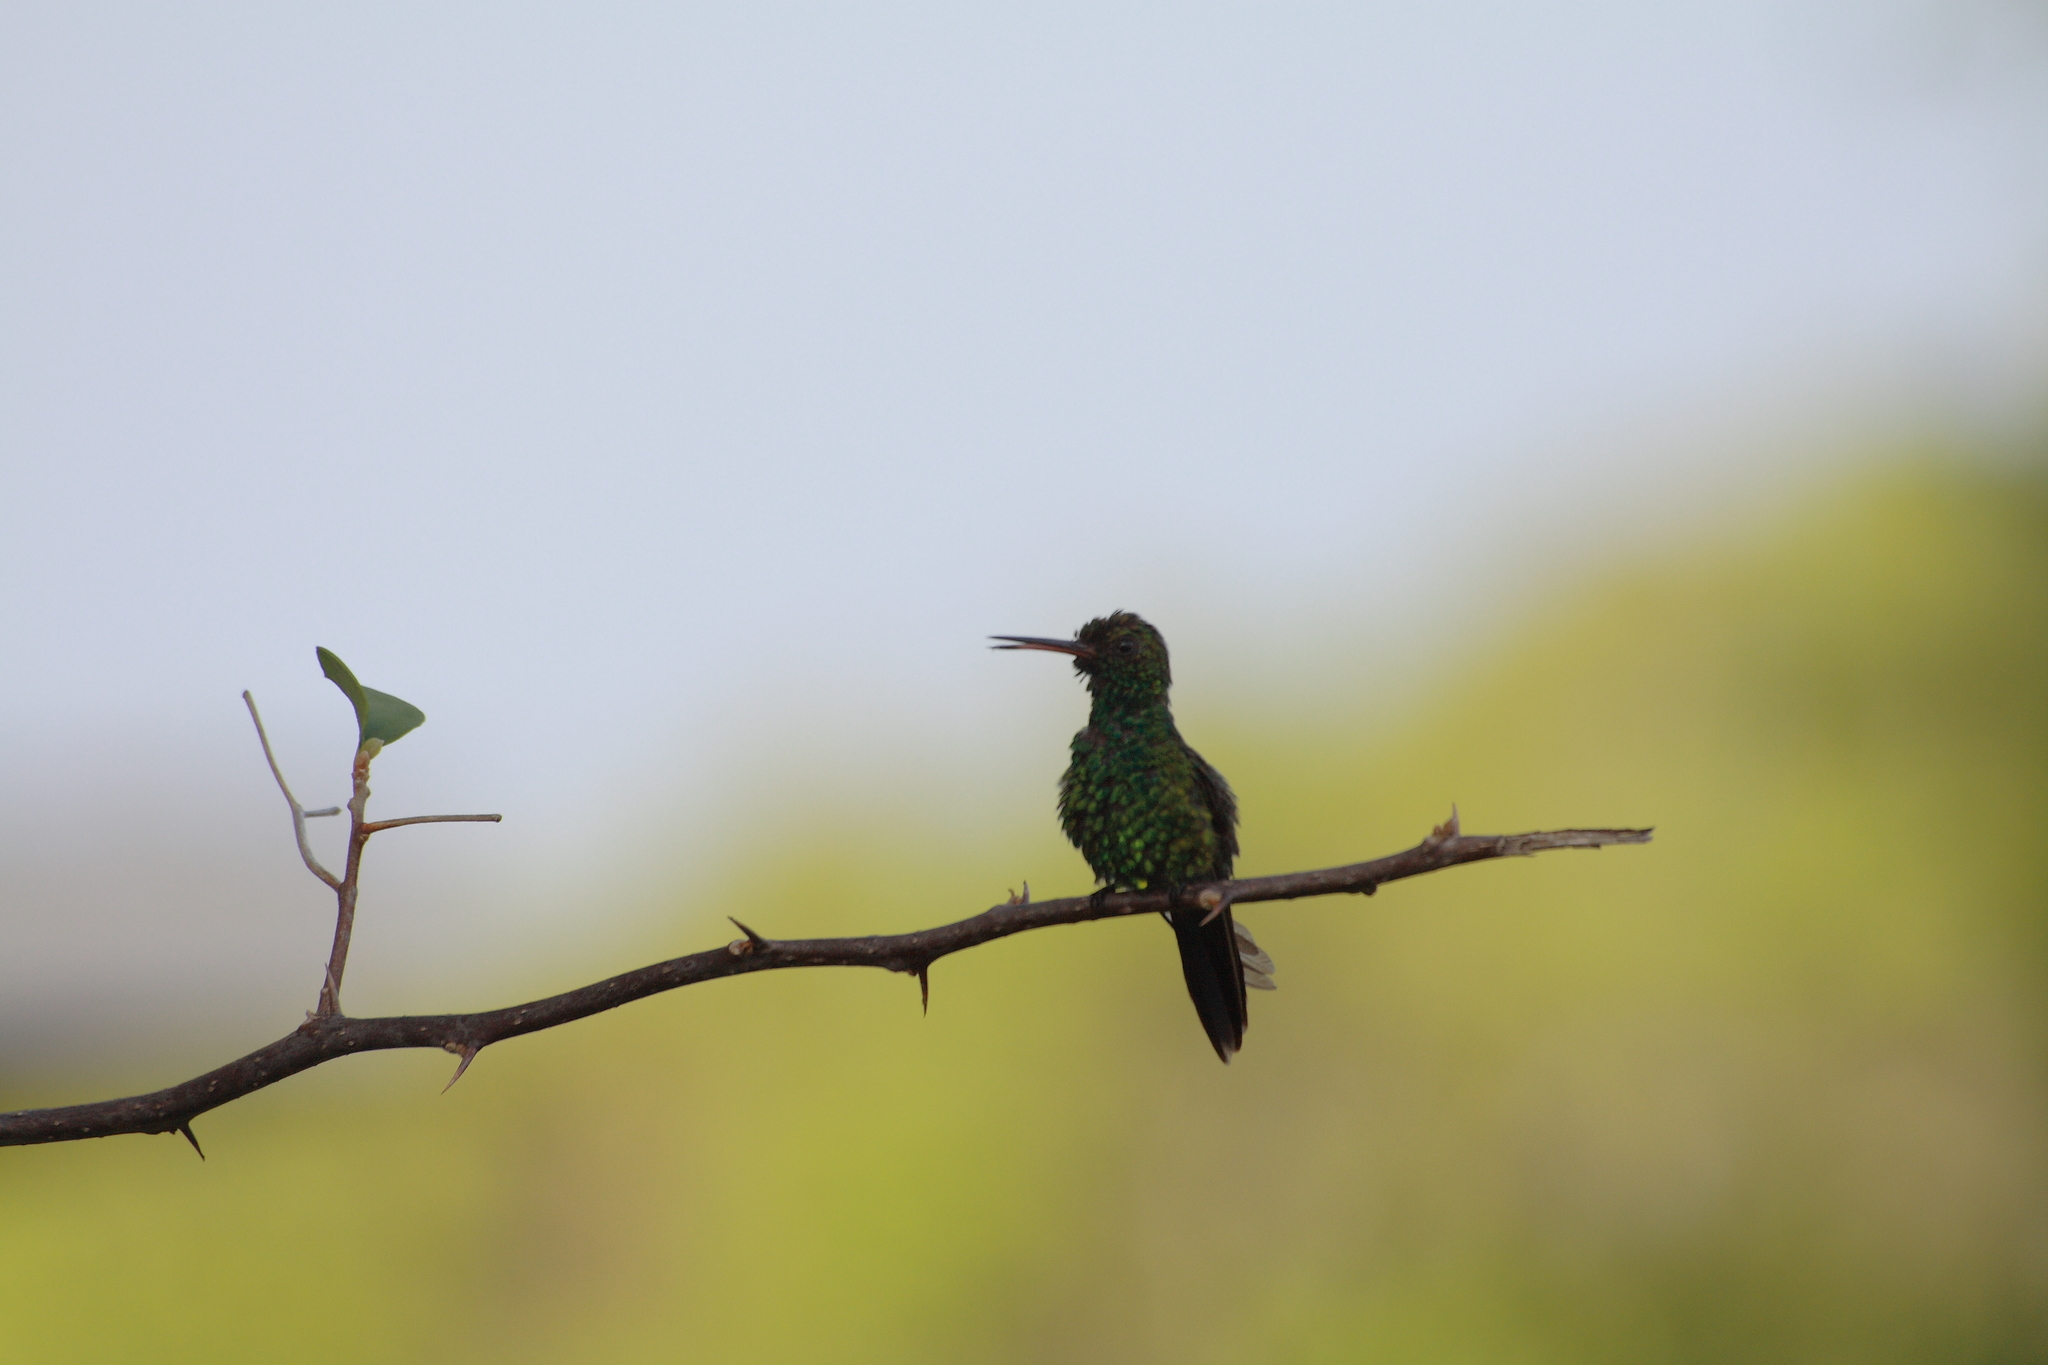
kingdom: Animalia
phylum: Chordata
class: Aves
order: Apodiformes
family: Trochilidae
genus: Cynanthus
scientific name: Cynanthus canivetii
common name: Canivet's emerald
